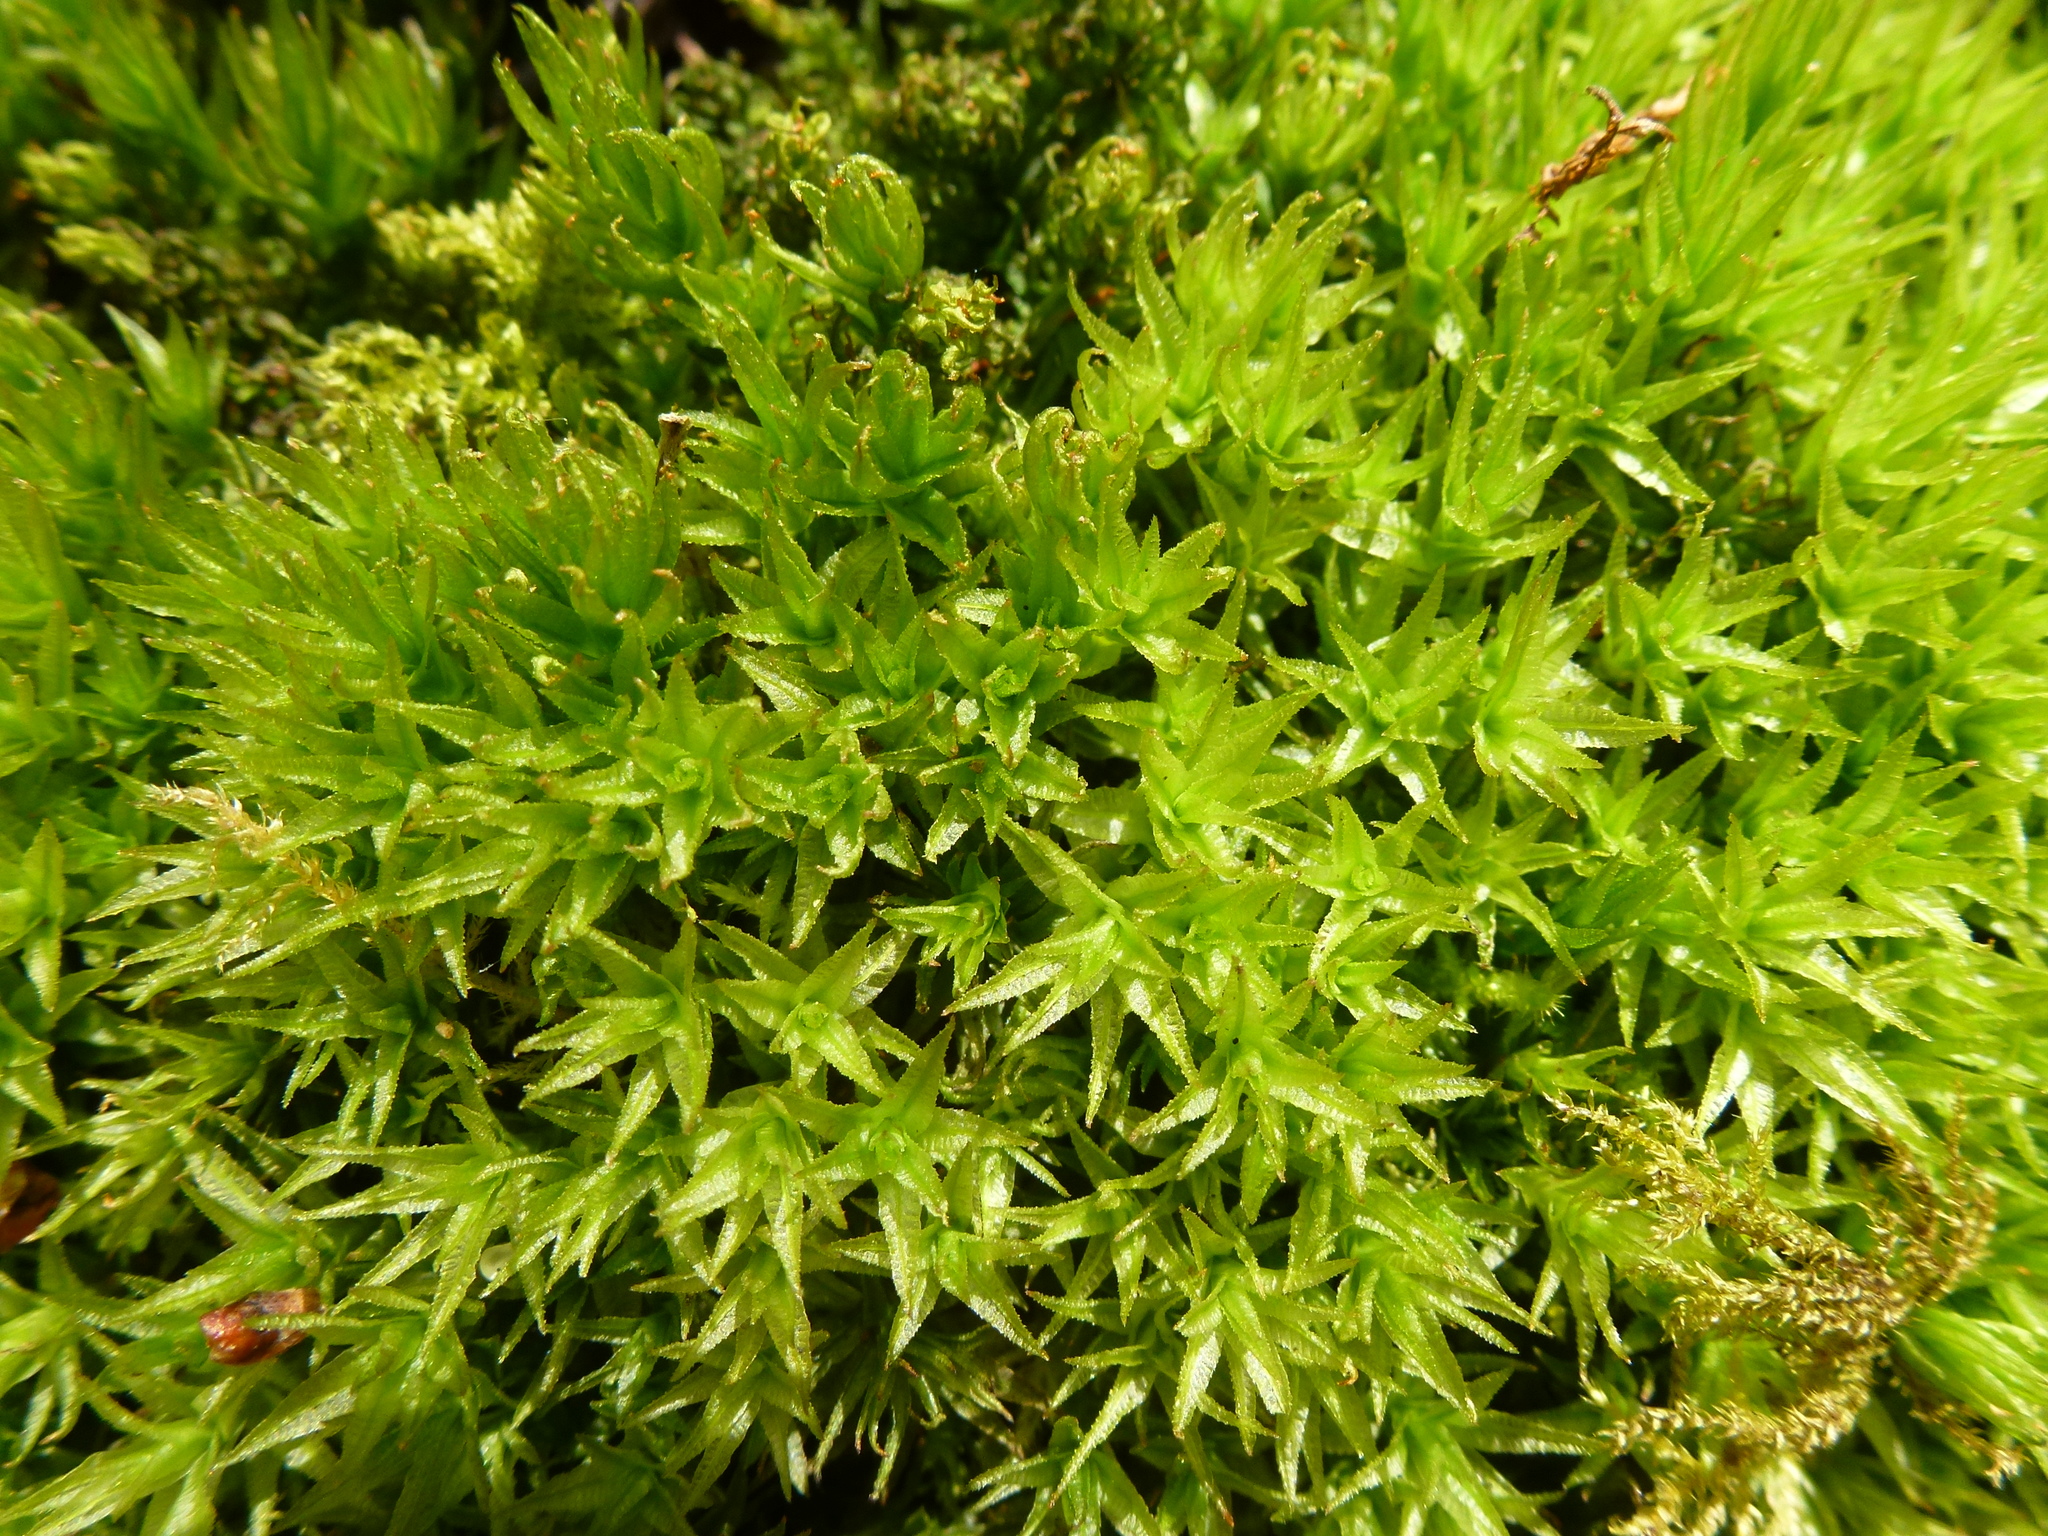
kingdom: Plantae
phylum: Bryophyta
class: Polytrichopsida
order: Polytrichales
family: Polytrichaceae
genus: Atrichum
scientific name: Atrichum undulatum
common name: Common smoothcap
